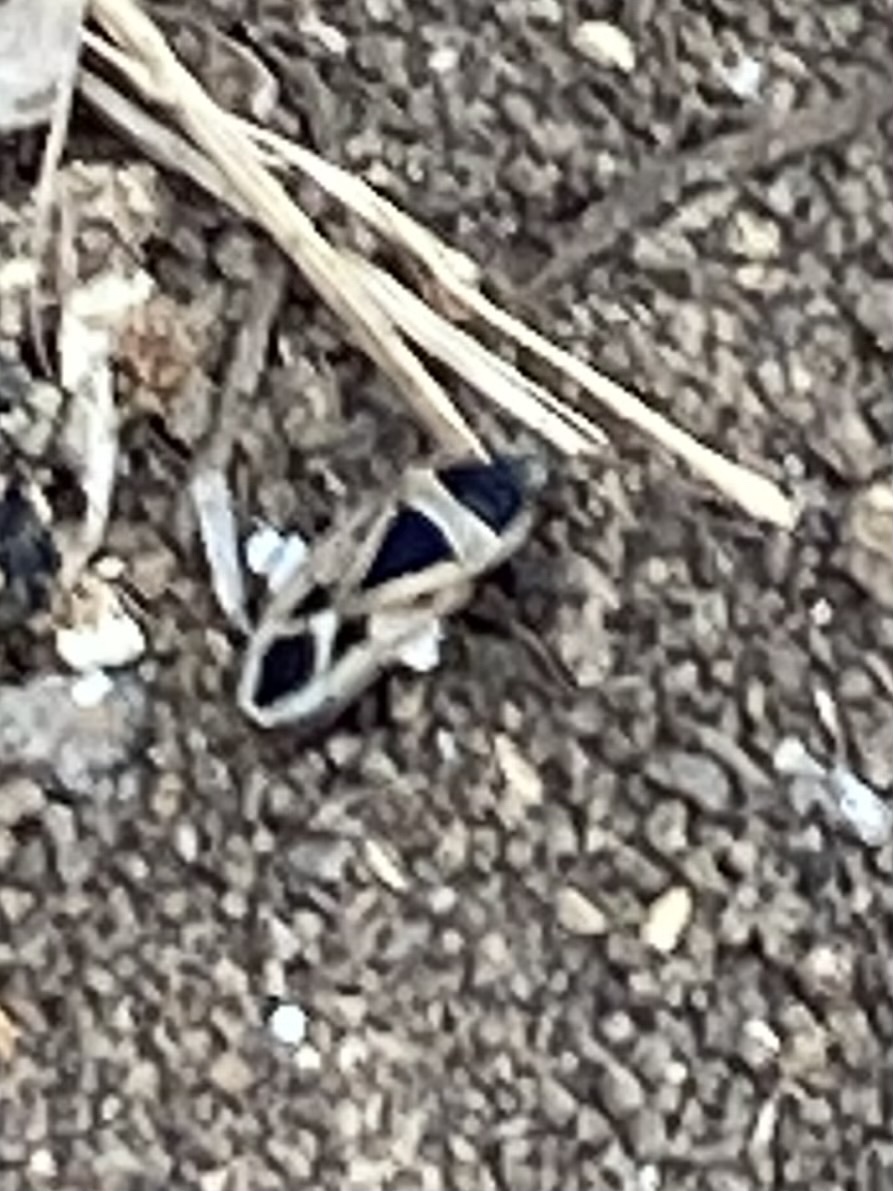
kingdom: Animalia
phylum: Arthropoda
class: Insecta
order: Hemiptera
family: Rhyparochromidae
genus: Xanthochilus
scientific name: Xanthochilus saturnius
